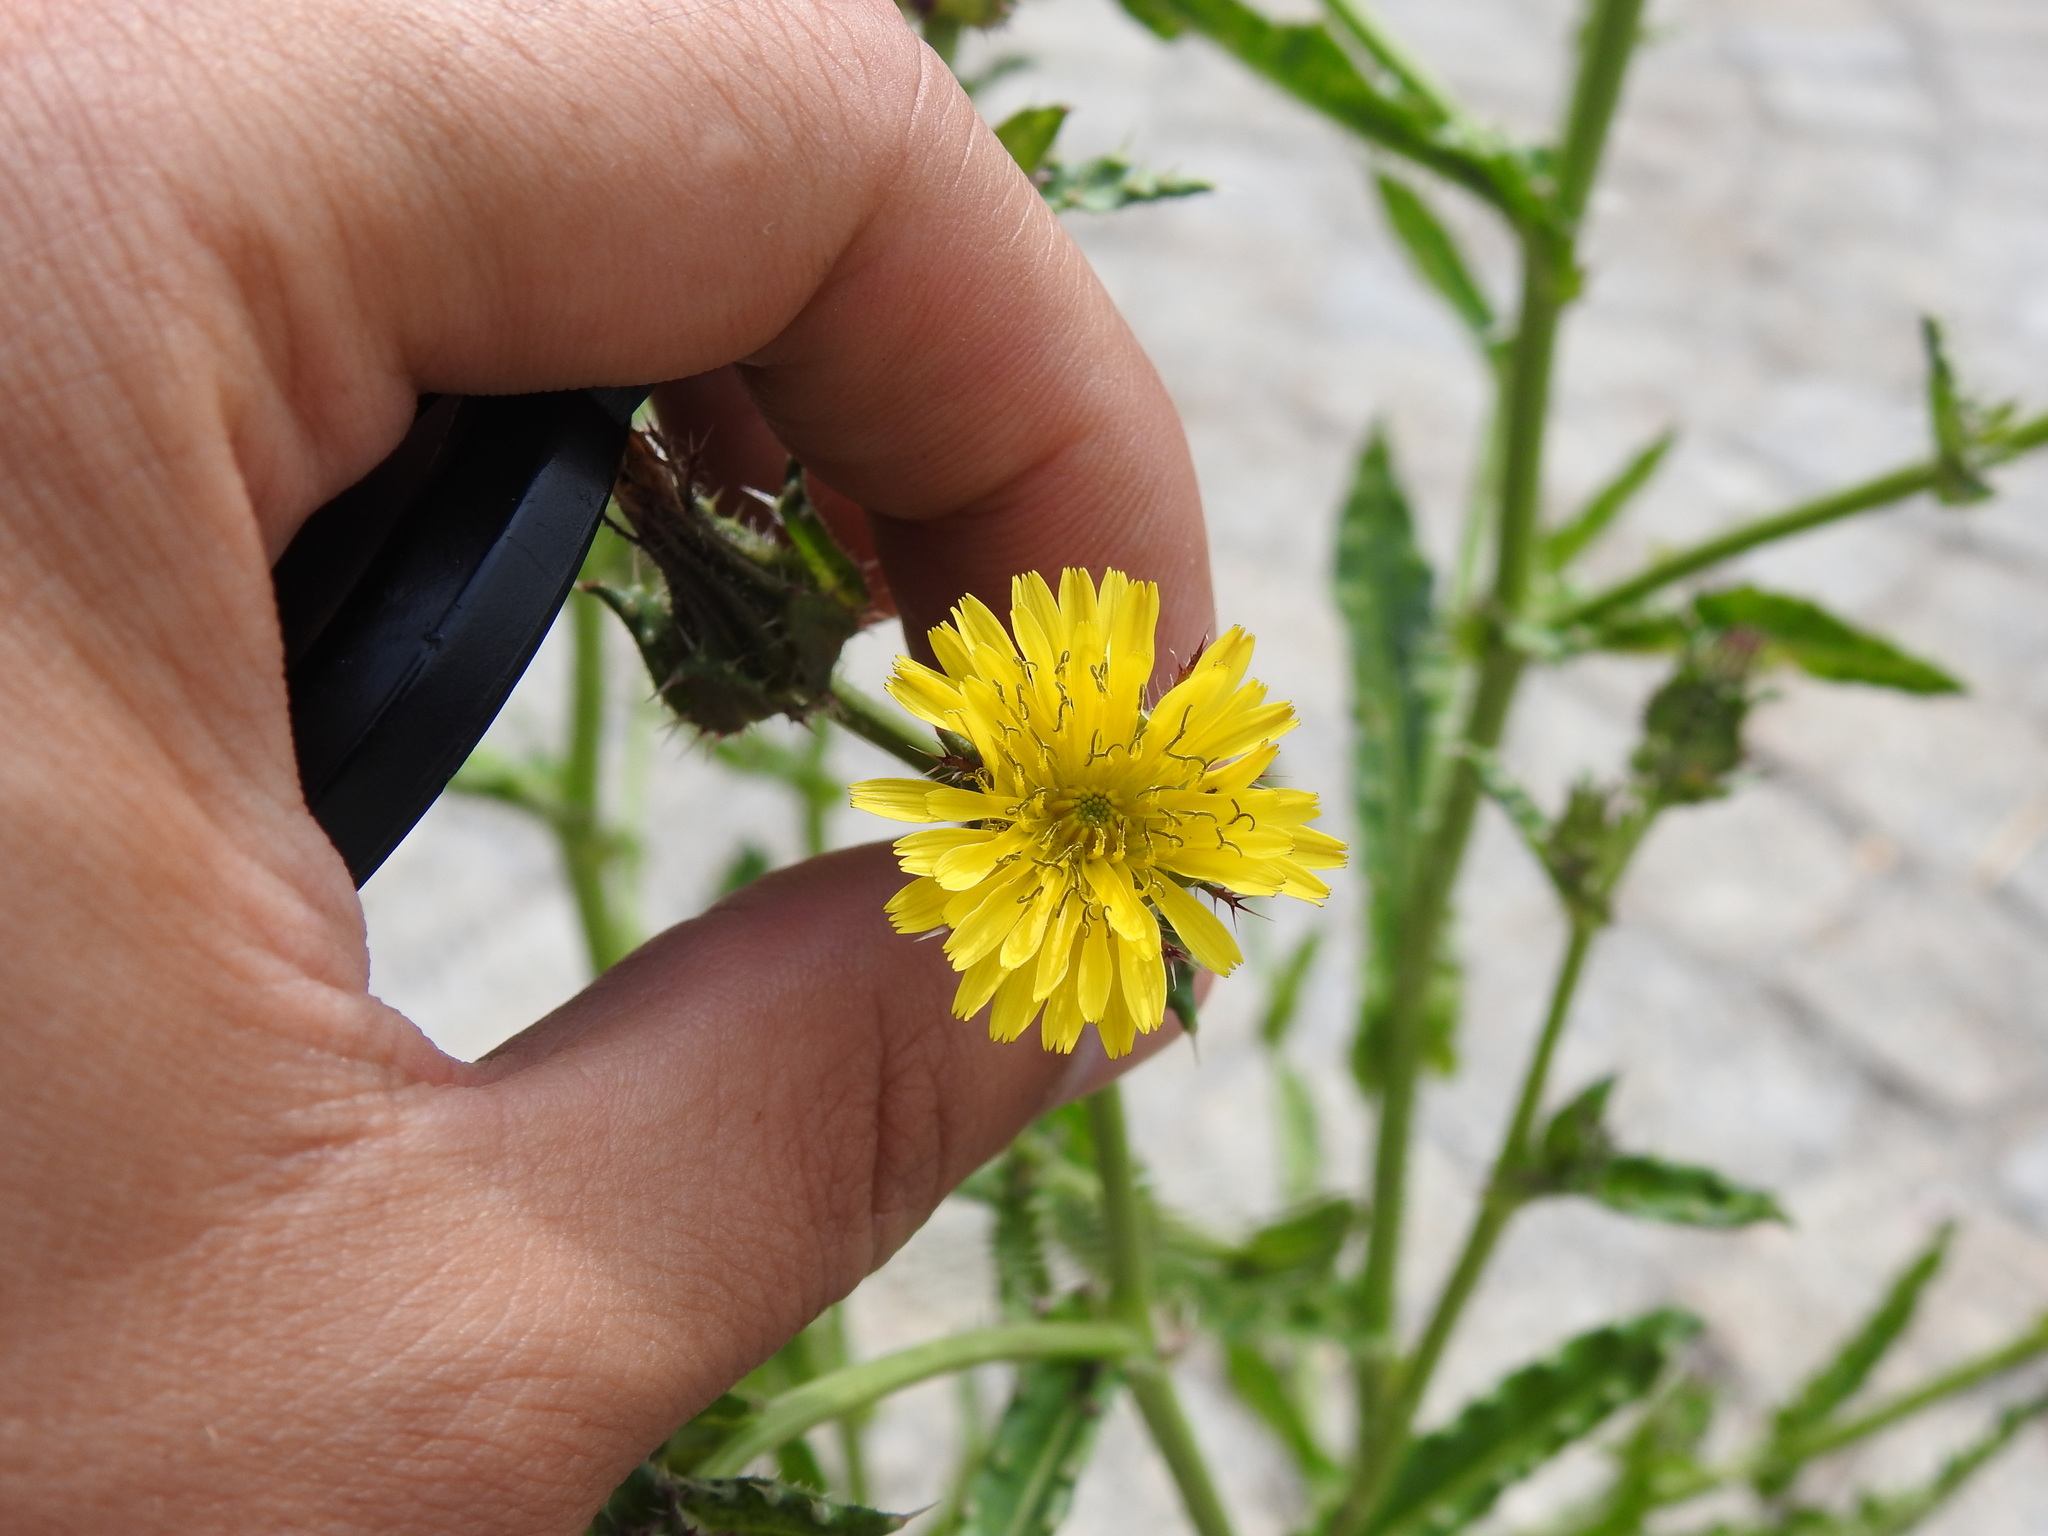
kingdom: Plantae
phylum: Tracheophyta
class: Magnoliopsida
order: Asterales
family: Asteraceae
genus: Helminthotheca
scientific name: Helminthotheca echioides
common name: Ox-tongue
